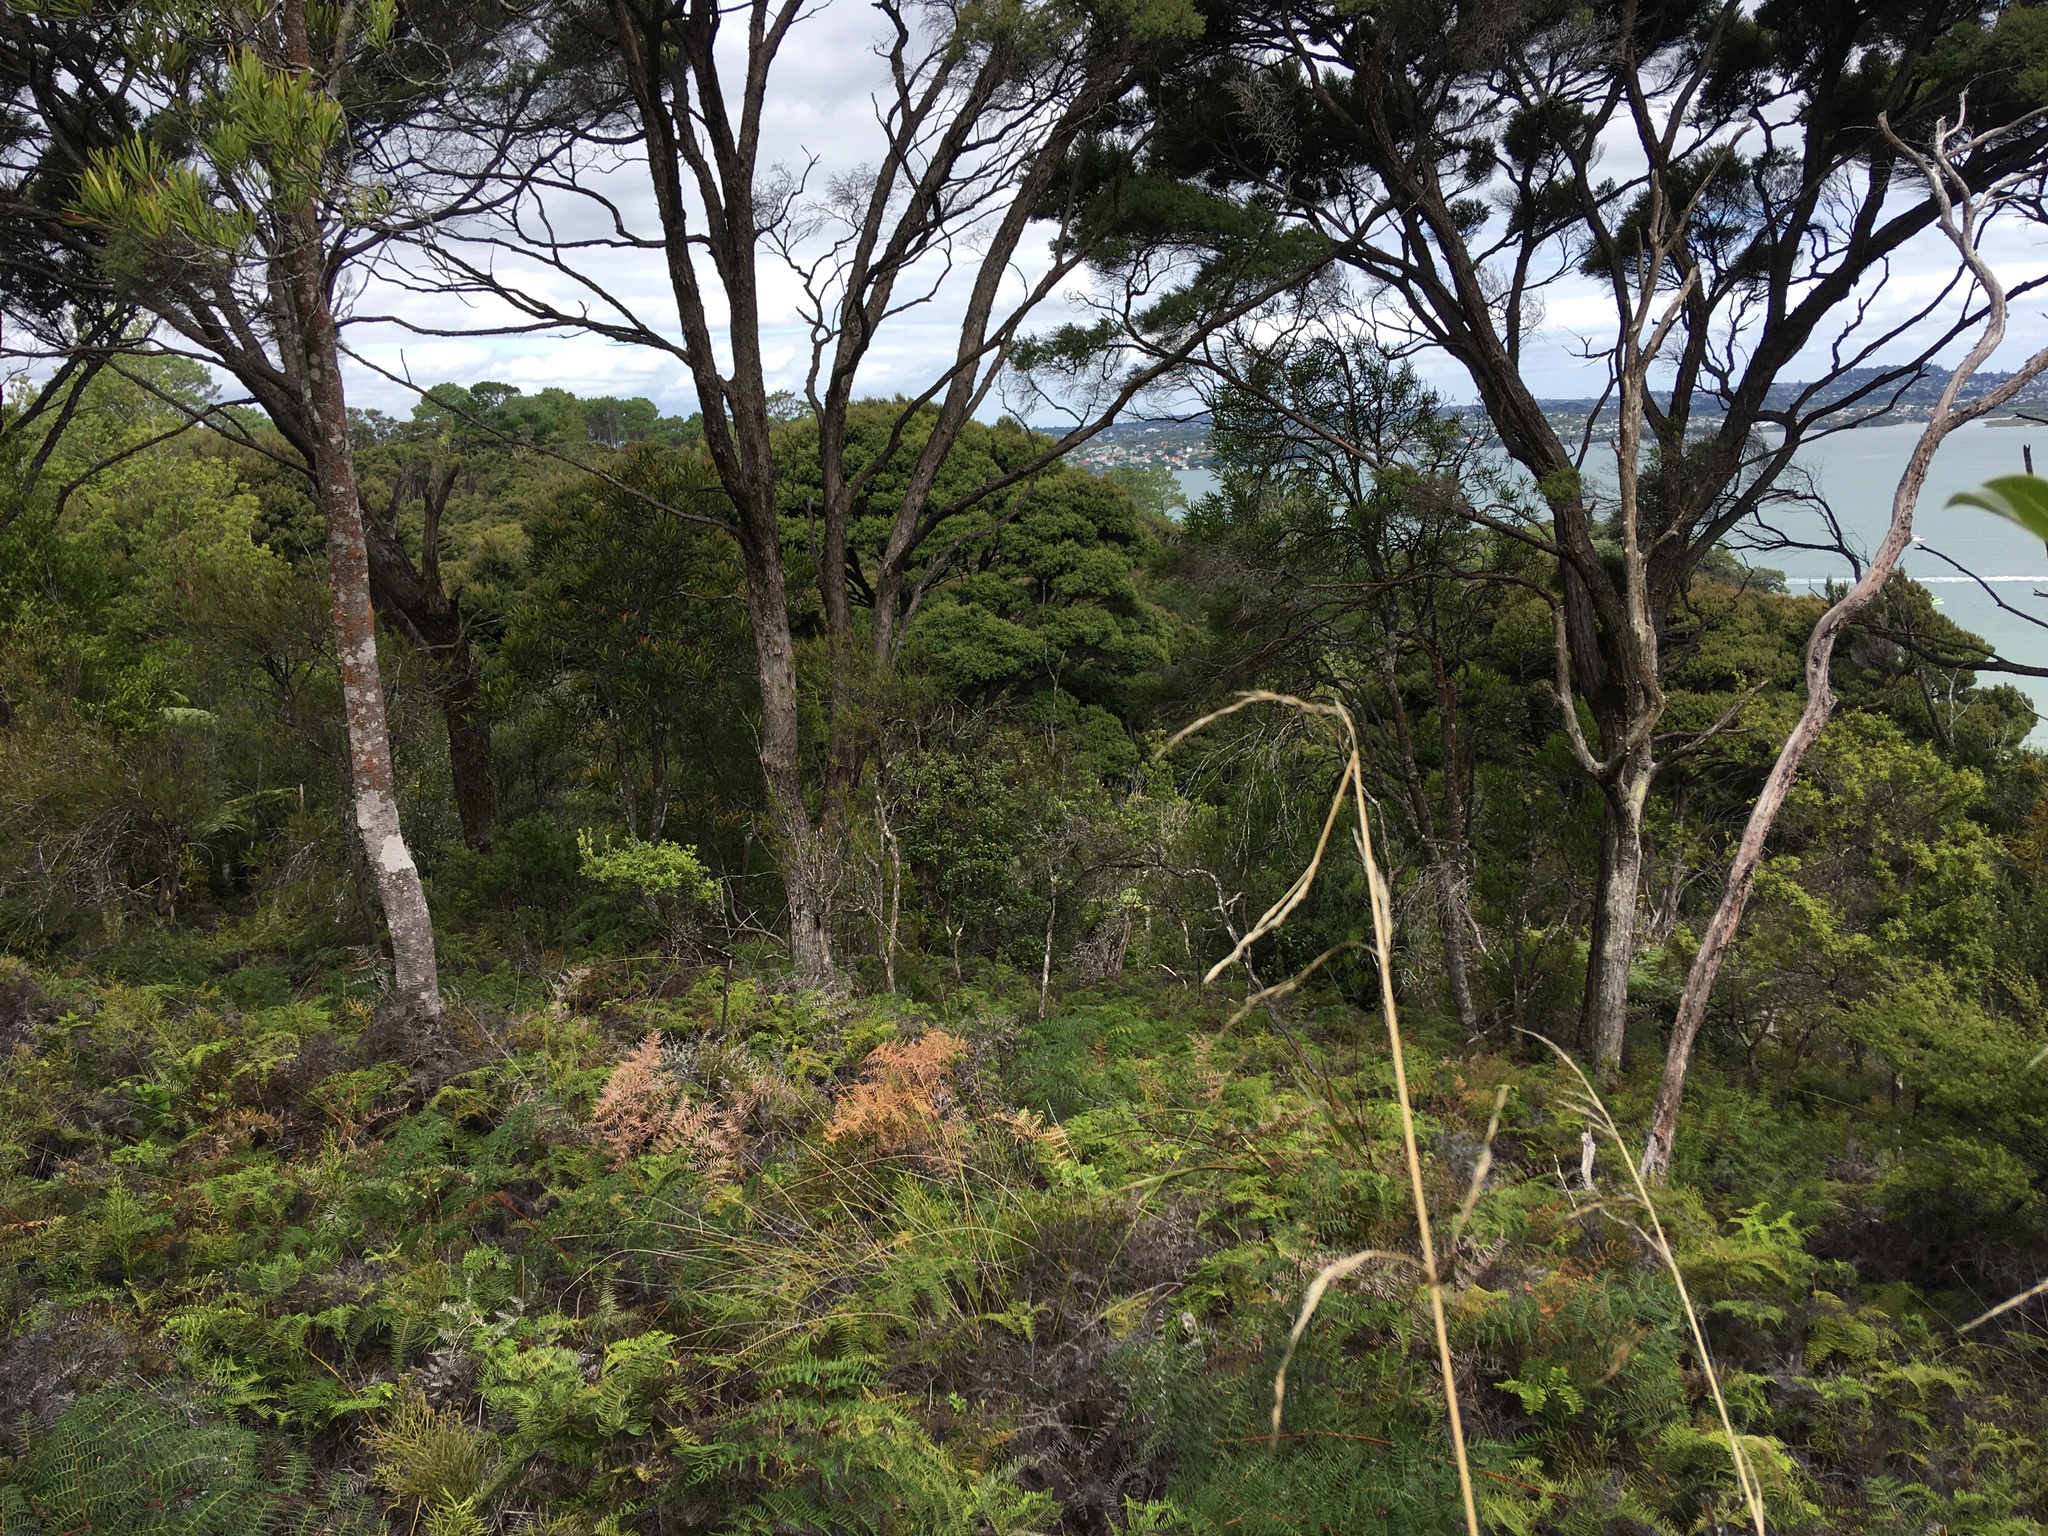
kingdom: Plantae
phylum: Tracheophyta
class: Polypodiopsida
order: Polypodiales
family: Dennstaedtiaceae
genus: Pteridium
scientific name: Pteridium esculentum
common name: Bracken fern
